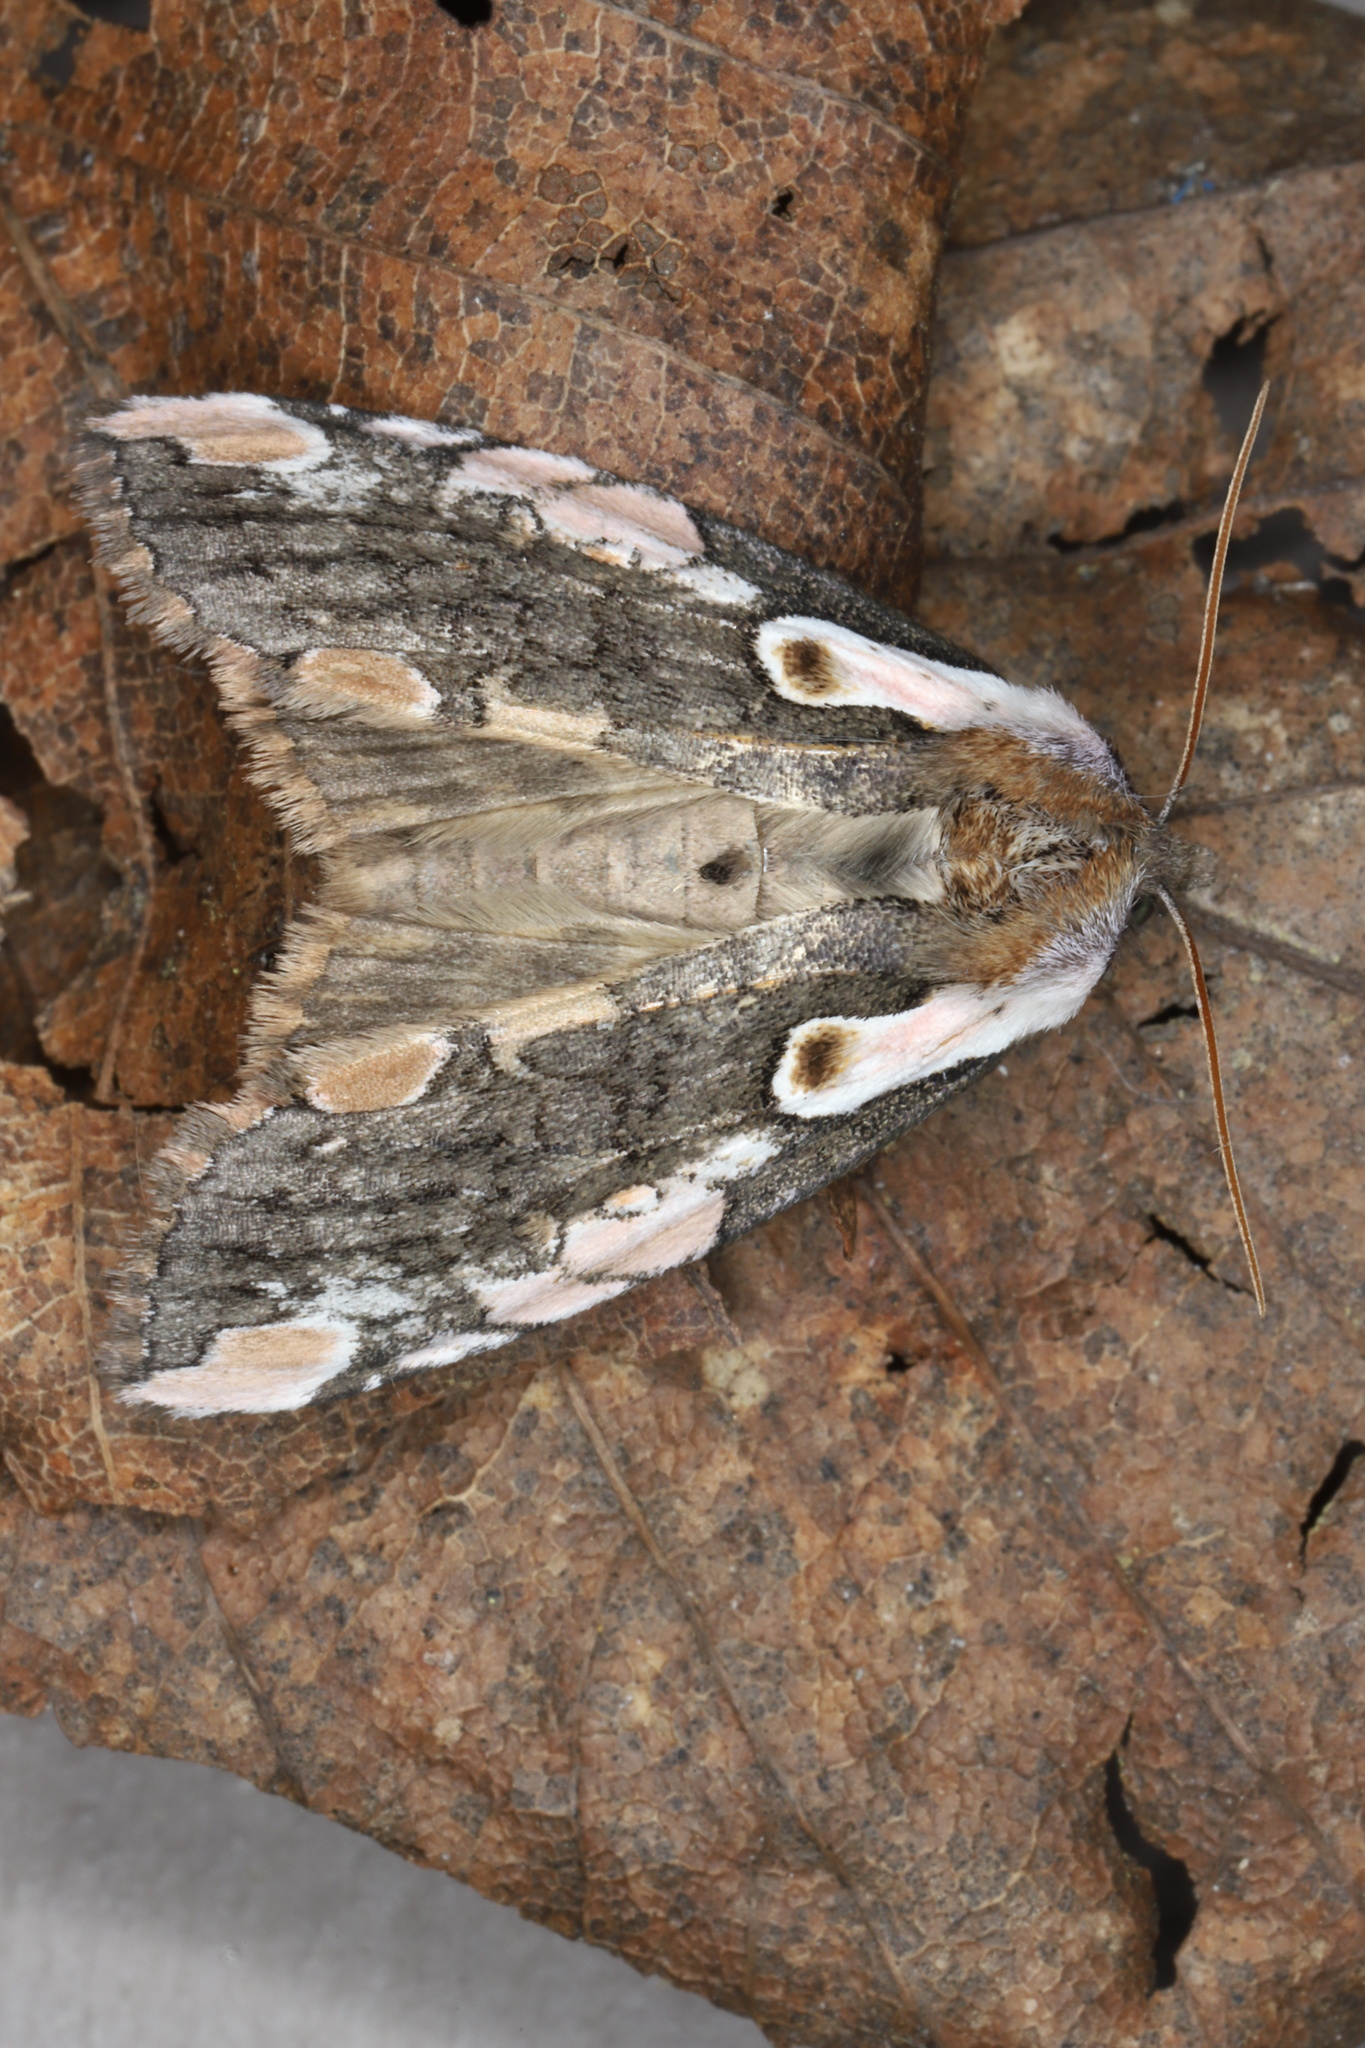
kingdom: Animalia
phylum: Arthropoda
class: Insecta
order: Lepidoptera
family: Drepanidae
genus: Euthyatira
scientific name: Euthyatira pudens
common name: Dogwood thyatirid moth
